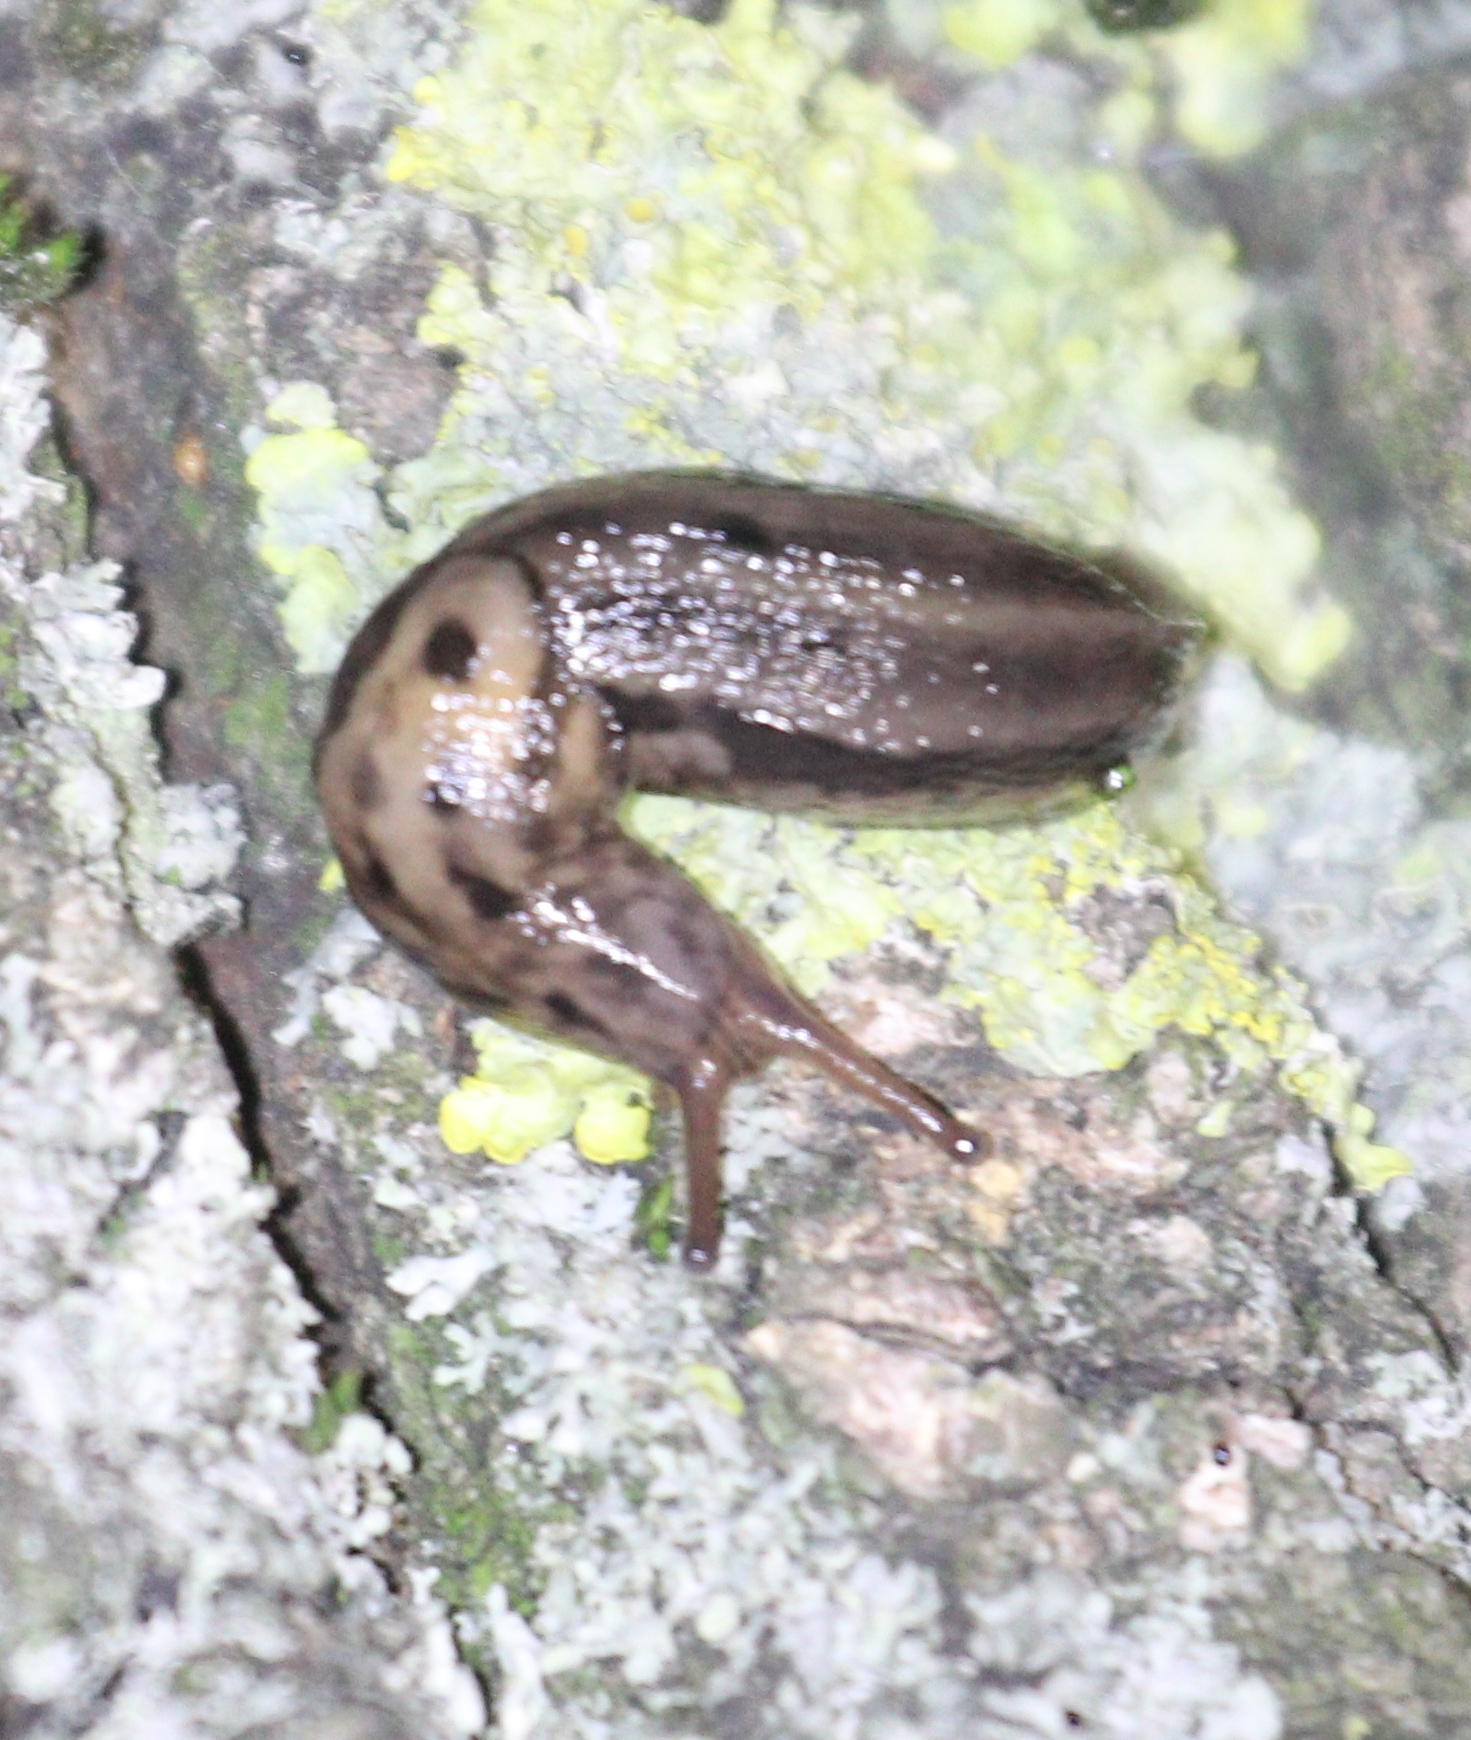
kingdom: Animalia
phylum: Mollusca
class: Gastropoda
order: Stylommatophora
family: Limacidae
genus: Limax
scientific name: Limax maximus
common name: Great grey slug
